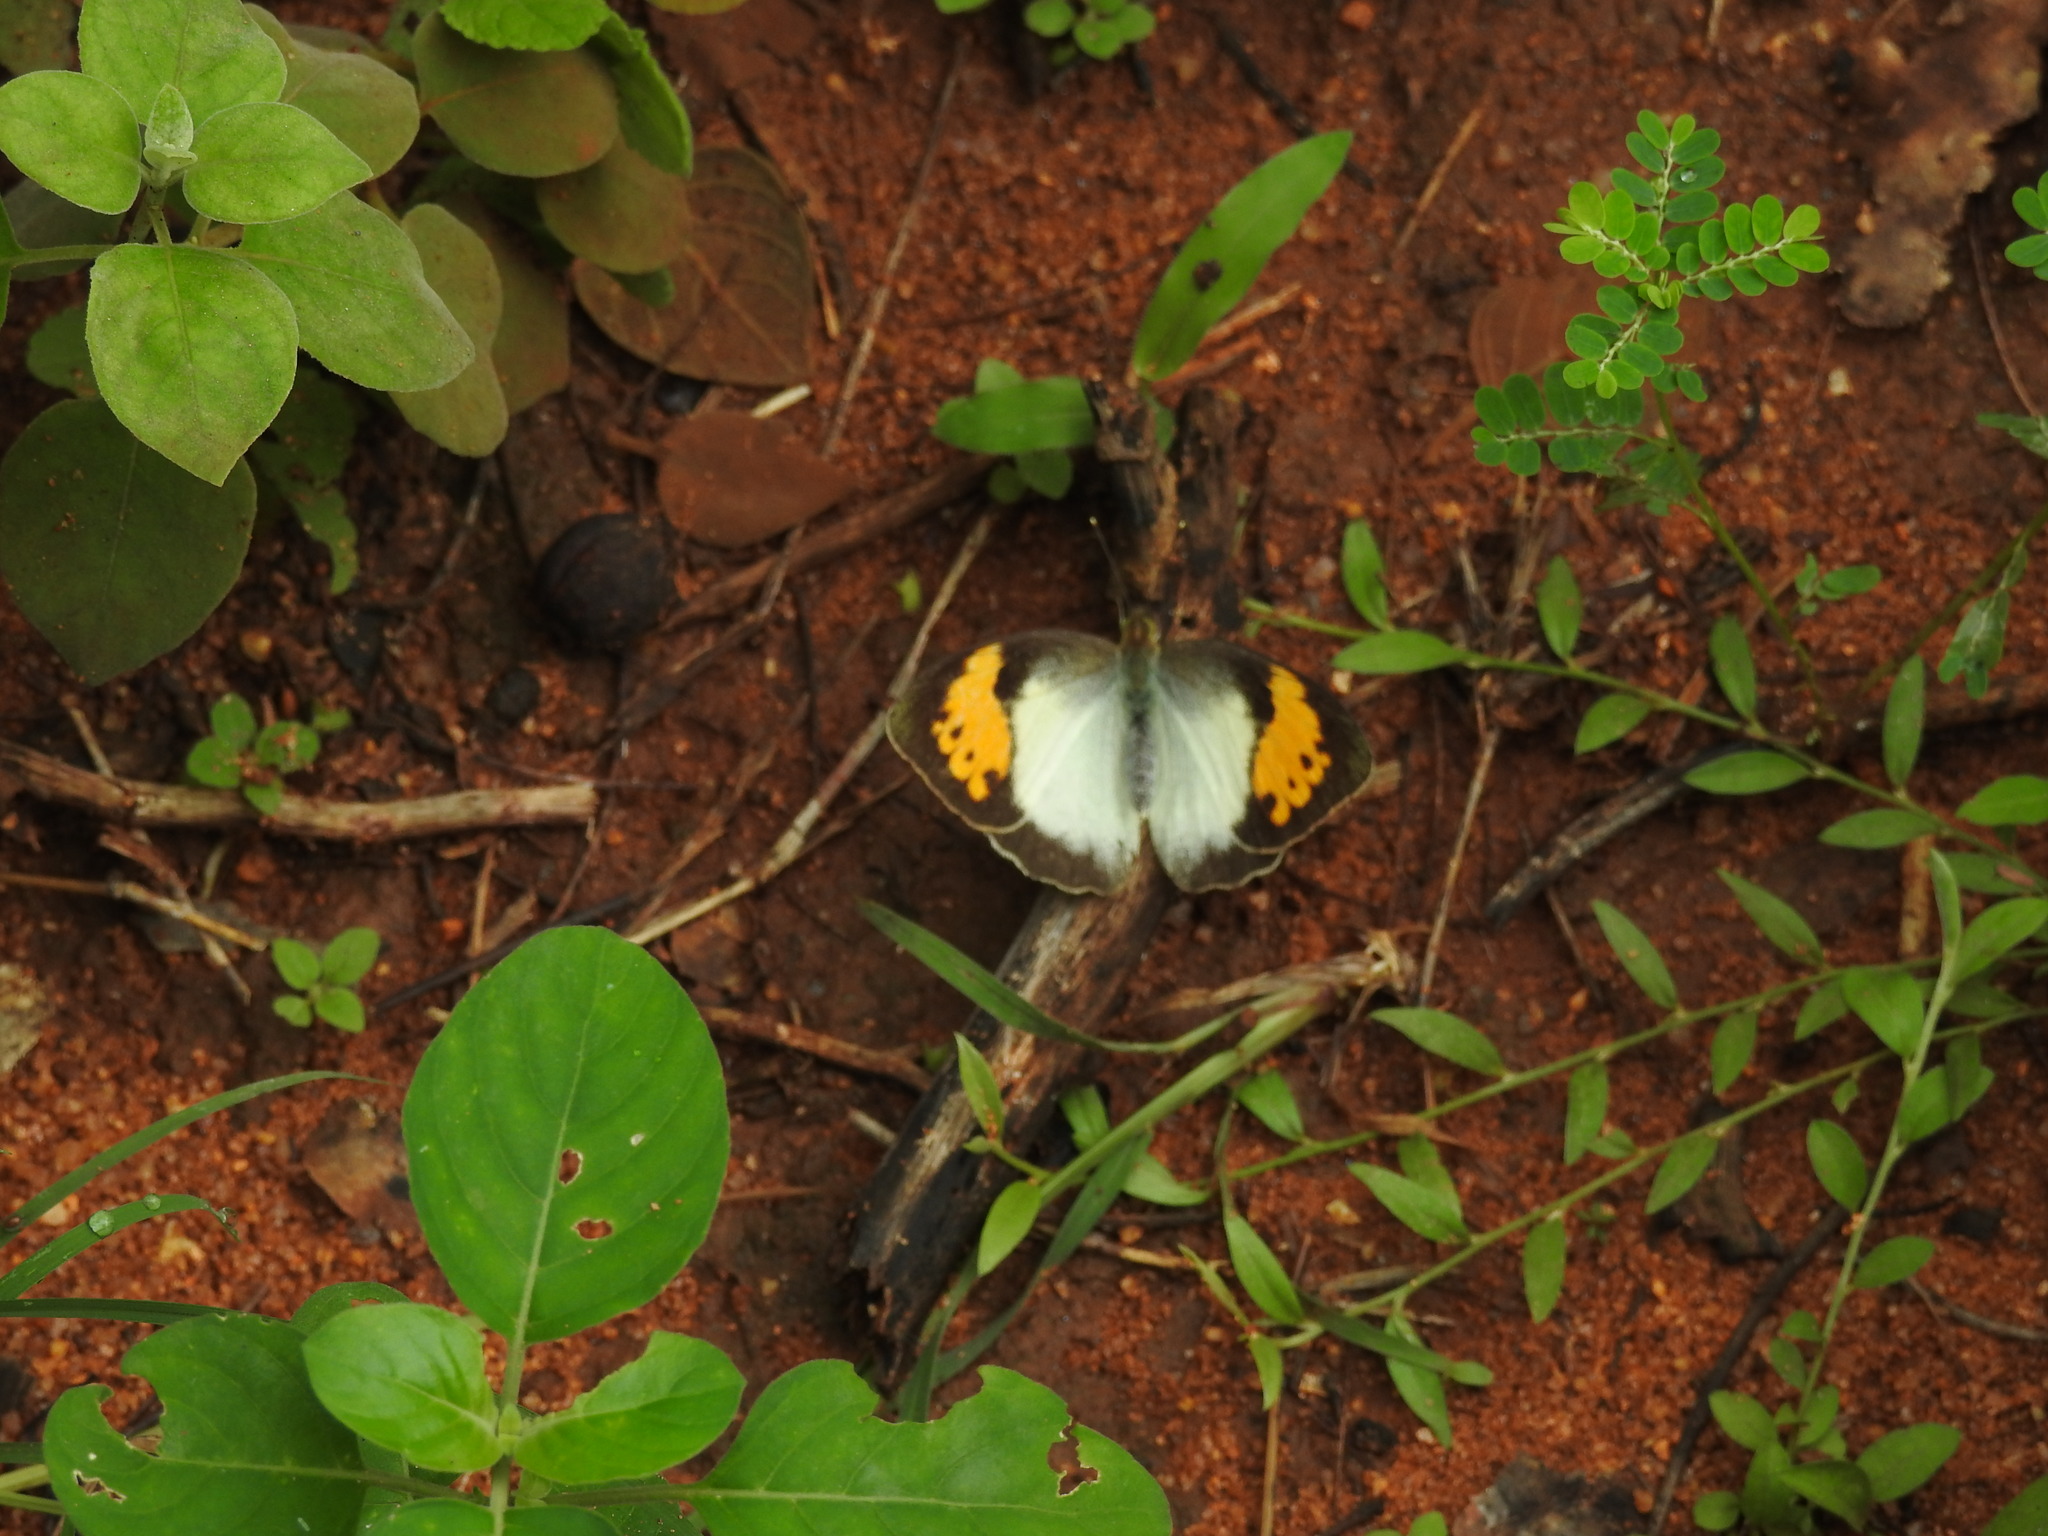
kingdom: Animalia
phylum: Arthropoda
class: Insecta
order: Lepidoptera
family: Pieridae
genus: Ixias
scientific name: Ixias marianne
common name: White orange tip
